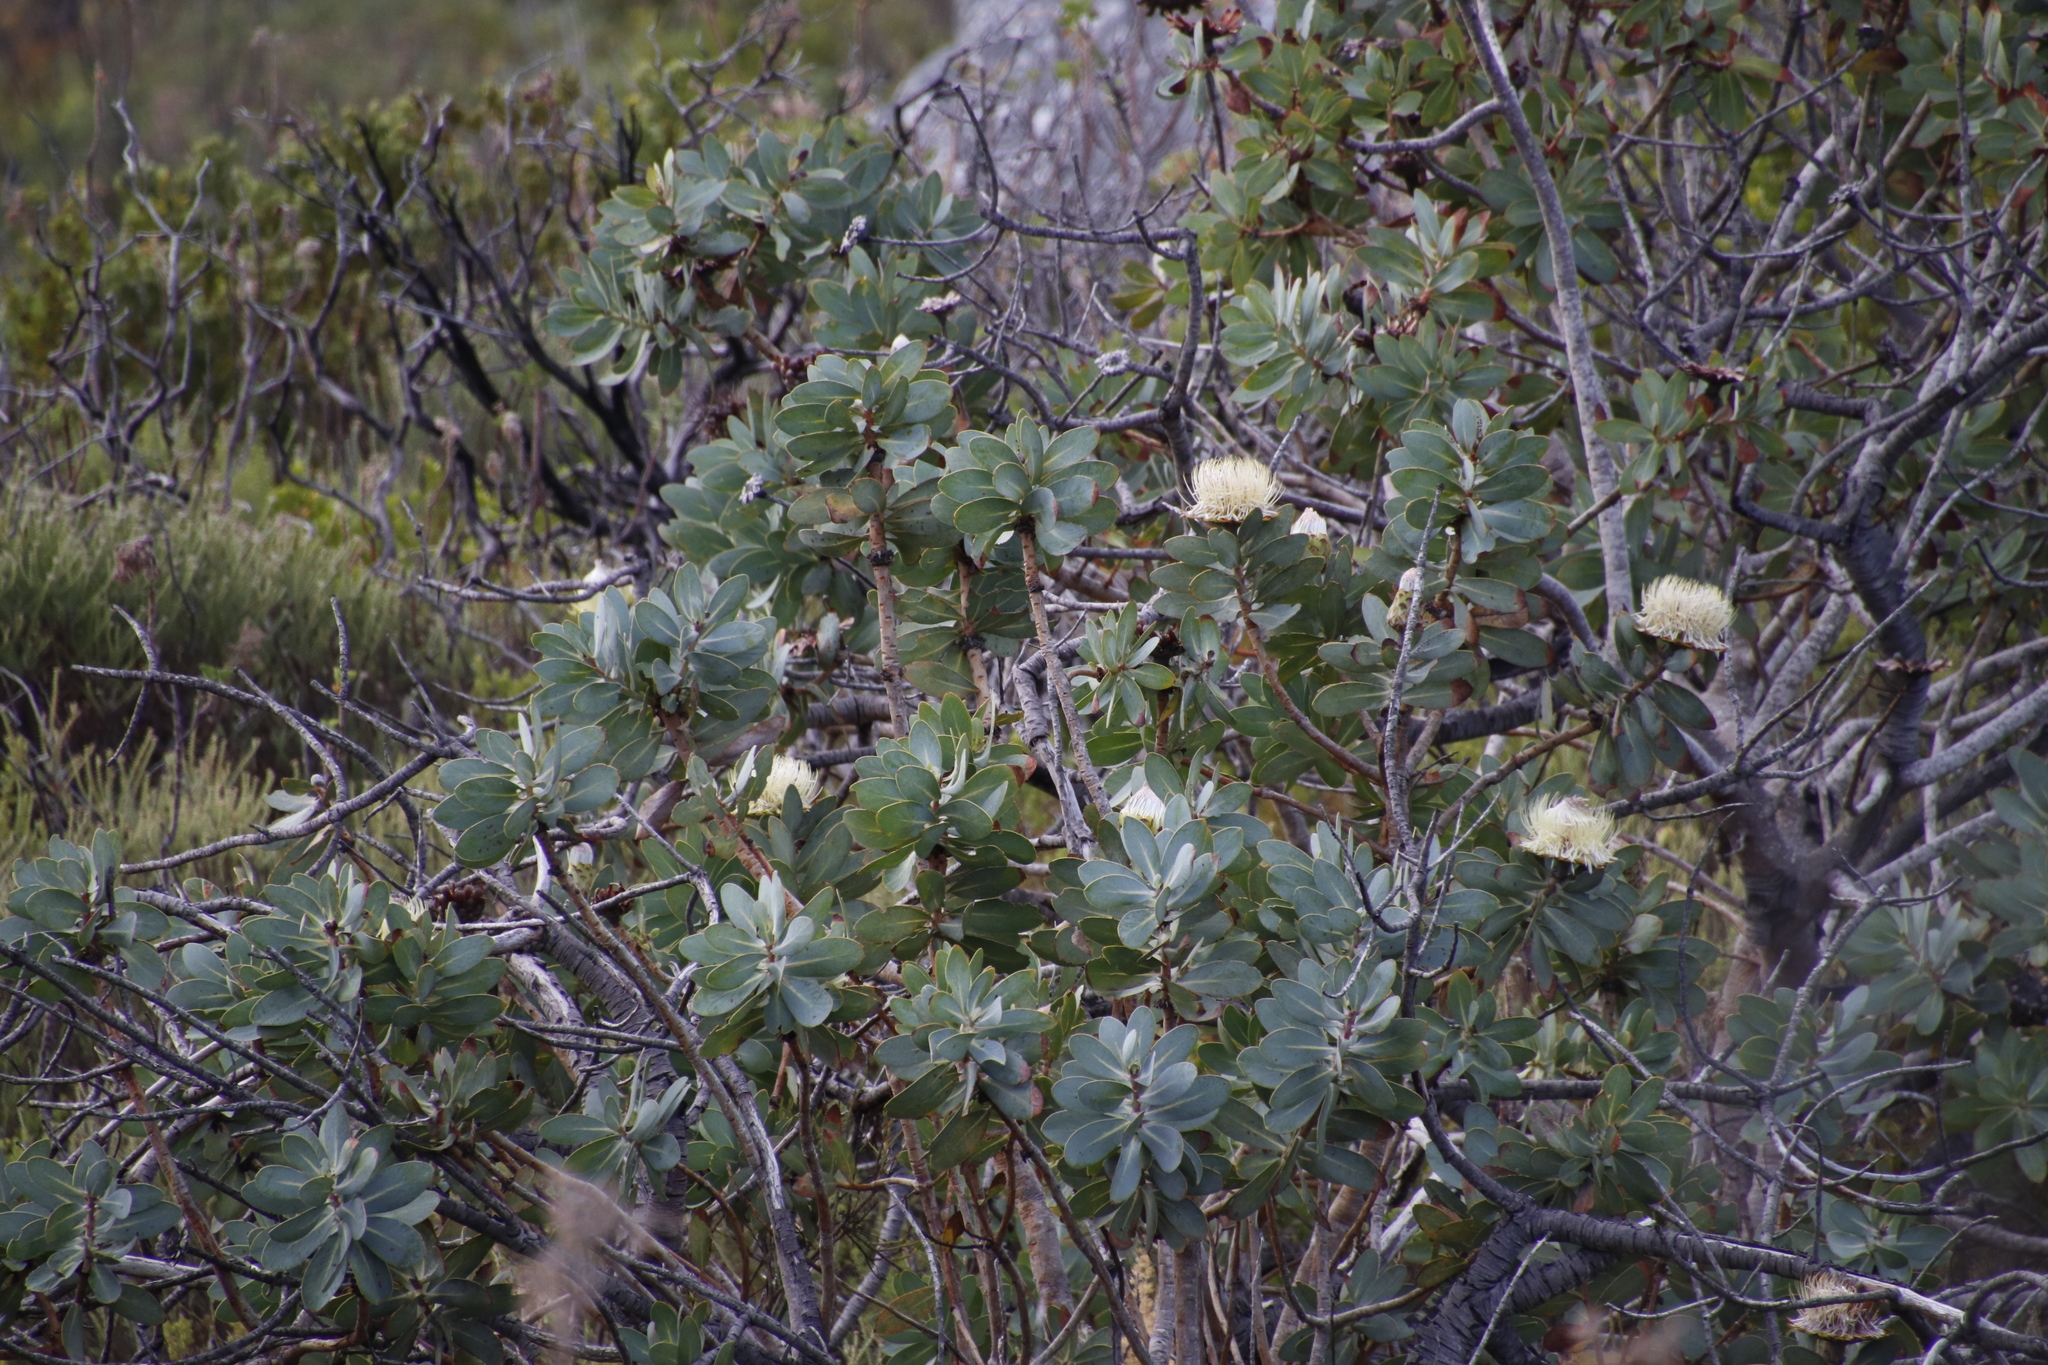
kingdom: Plantae
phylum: Tracheophyta
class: Magnoliopsida
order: Proteales
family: Proteaceae
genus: Protea
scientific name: Protea nitida
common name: Tree protea
